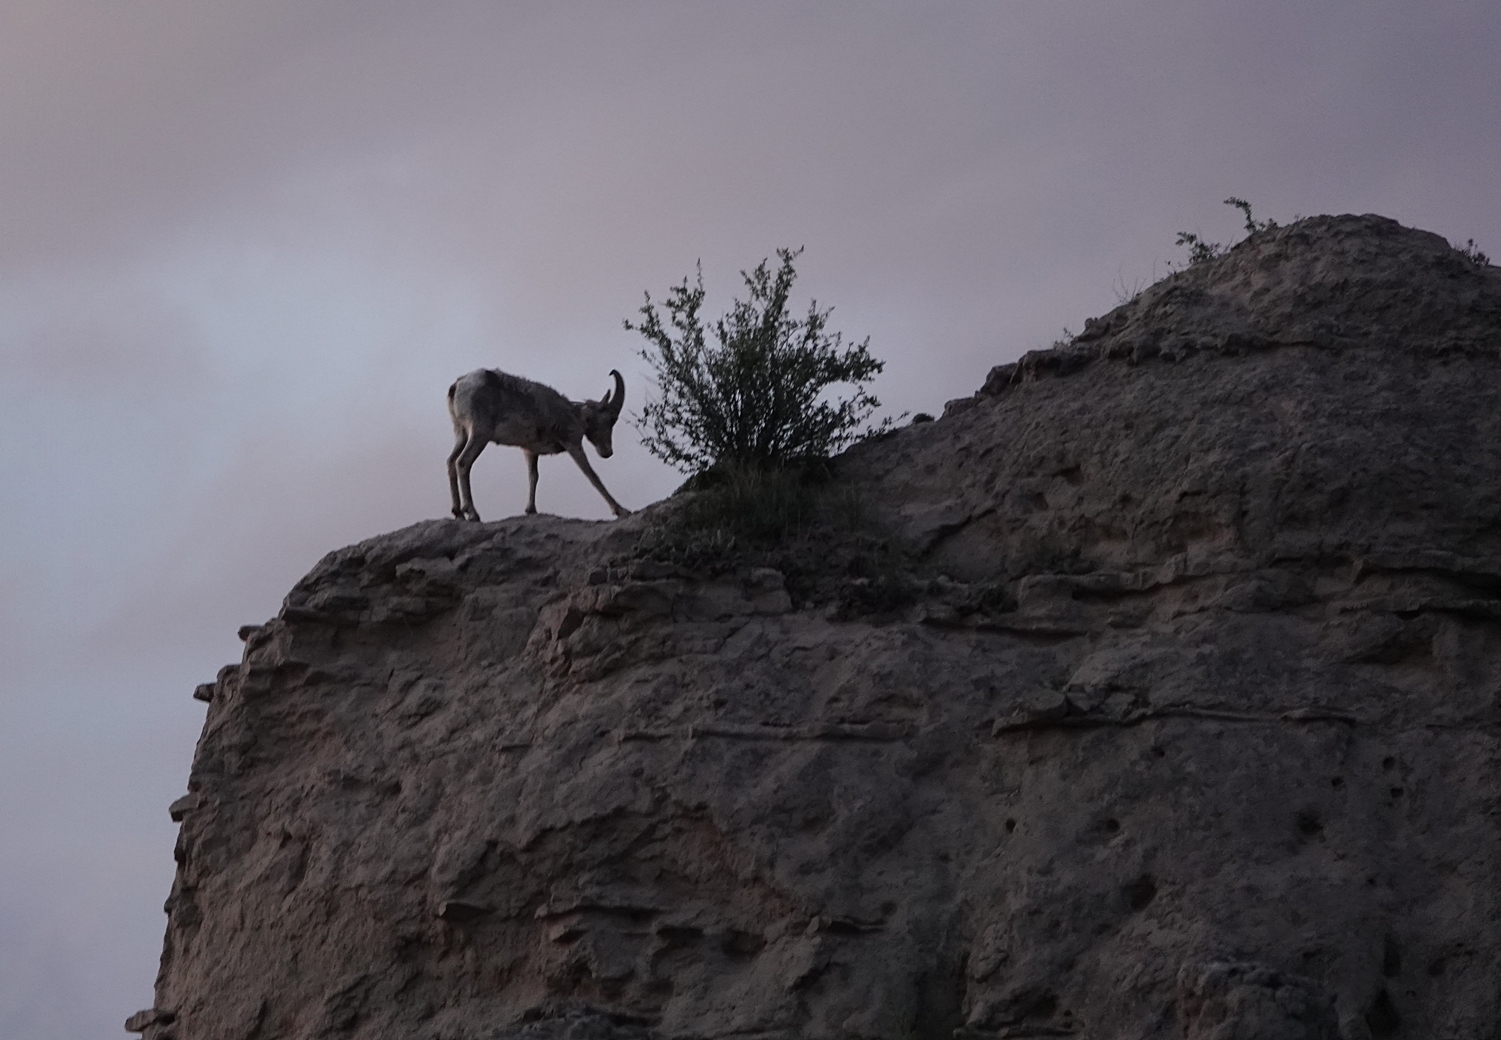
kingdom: Animalia
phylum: Chordata
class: Mammalia
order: Artiodactyla
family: Bovidae
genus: Ovis
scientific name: Ovis canadensis
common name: Bighorn sheep
